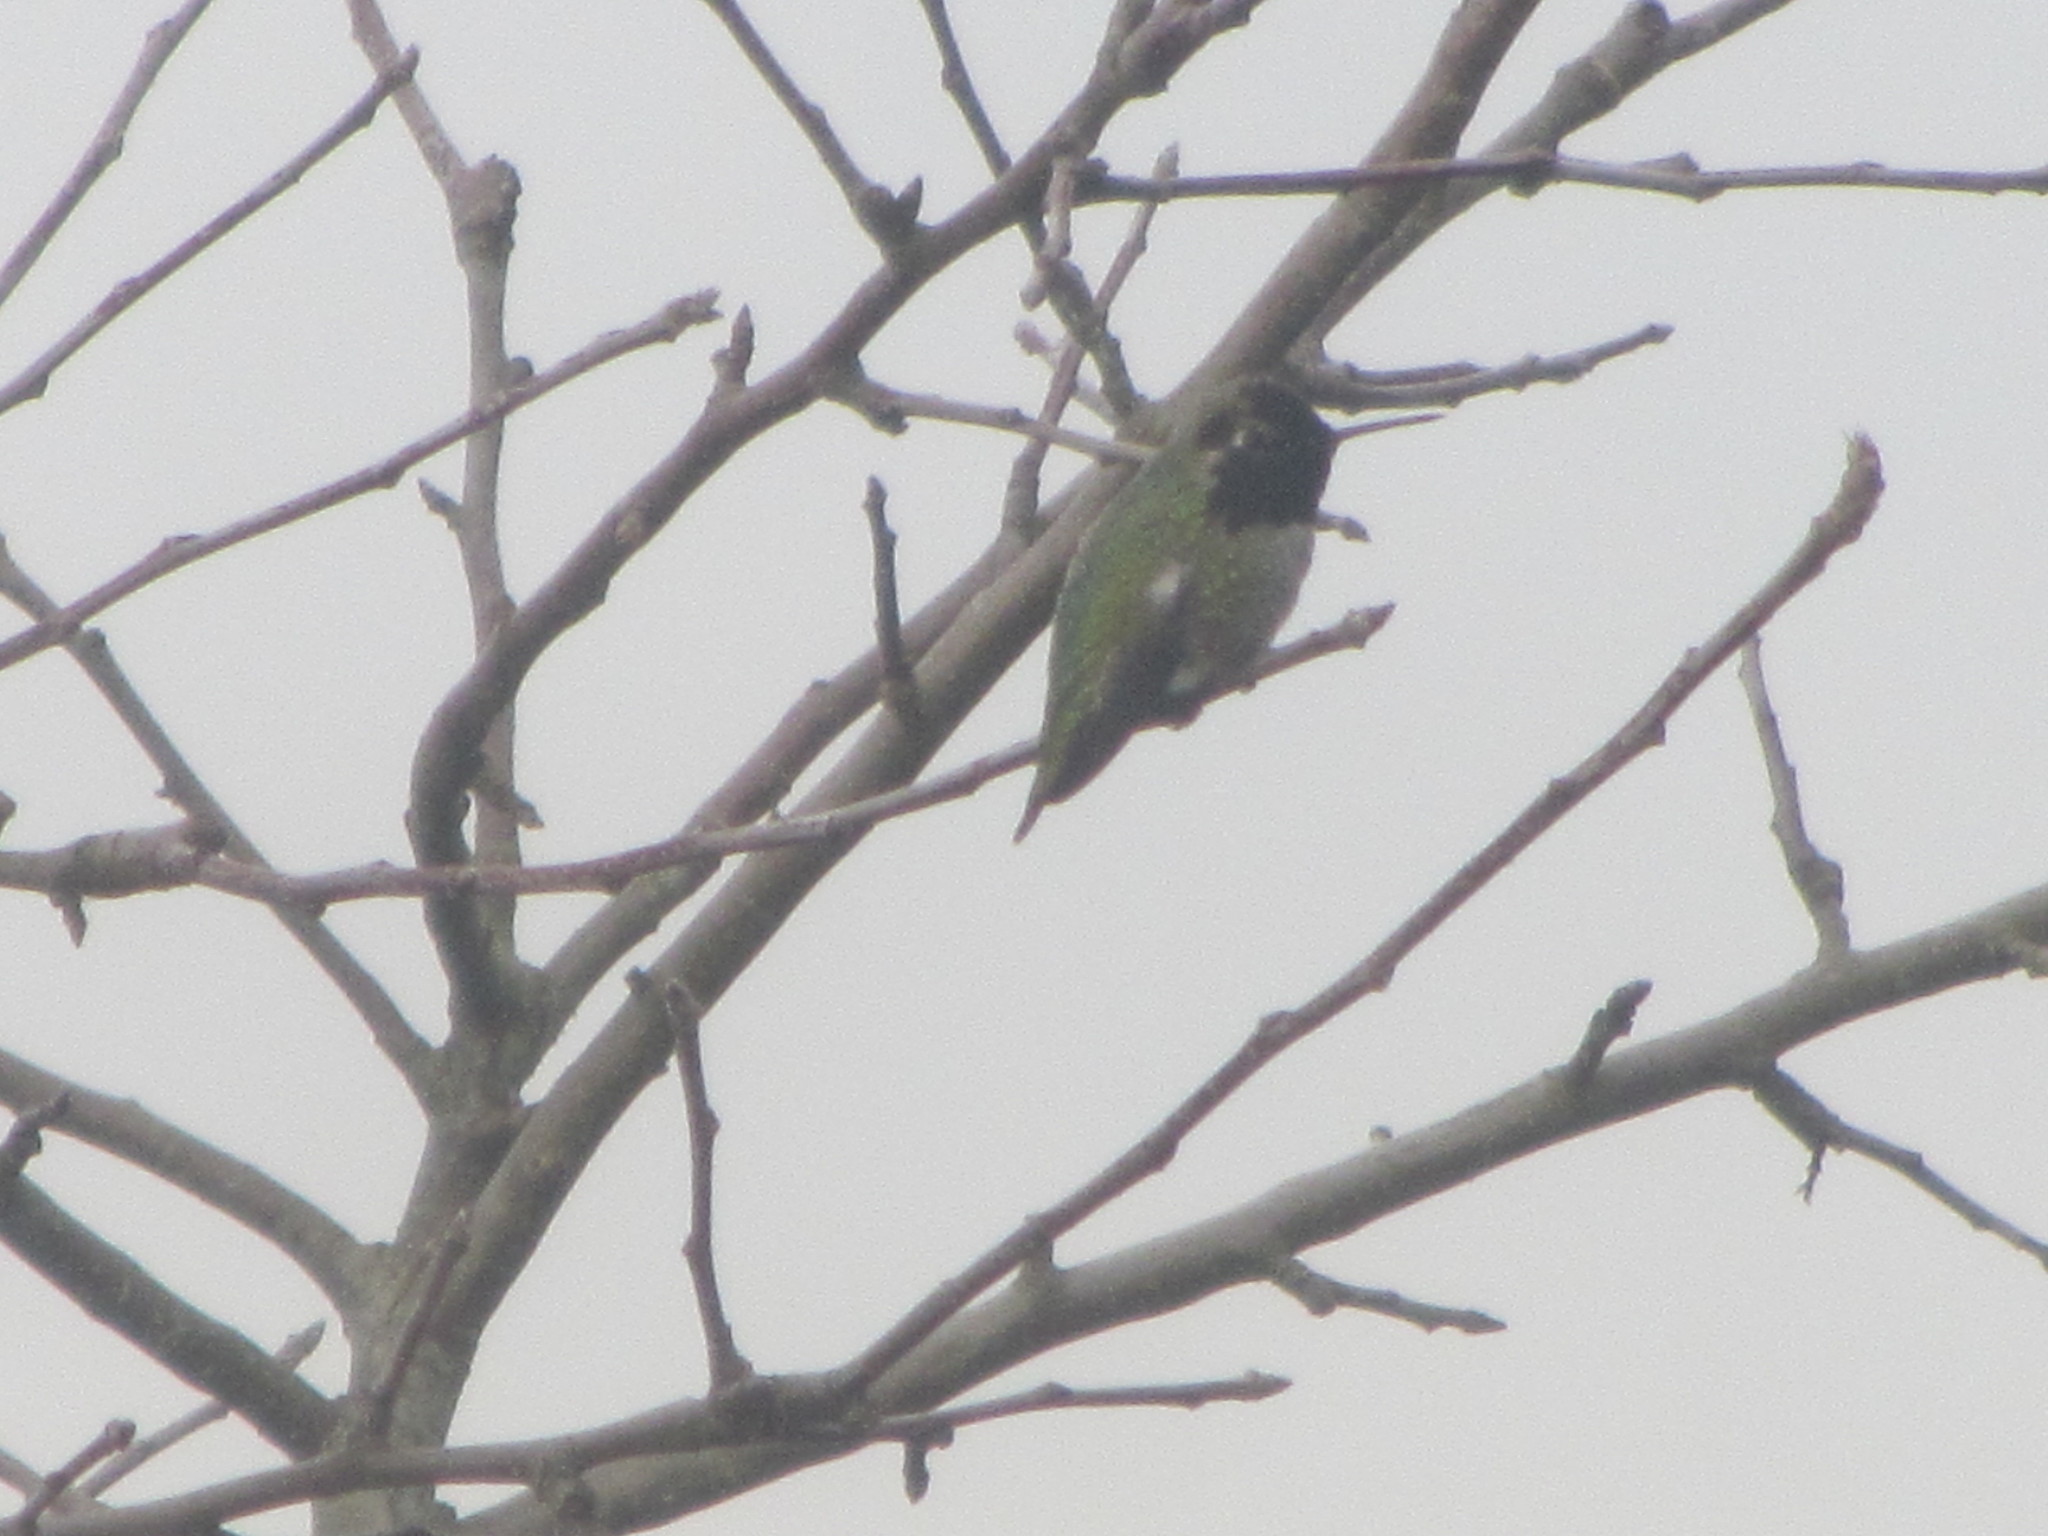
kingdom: Animalia
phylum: Chordata
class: Aves
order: Apodiformes
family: Trochilidae
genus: Calypte
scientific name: Calypte anna
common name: Anna's hummingbird
